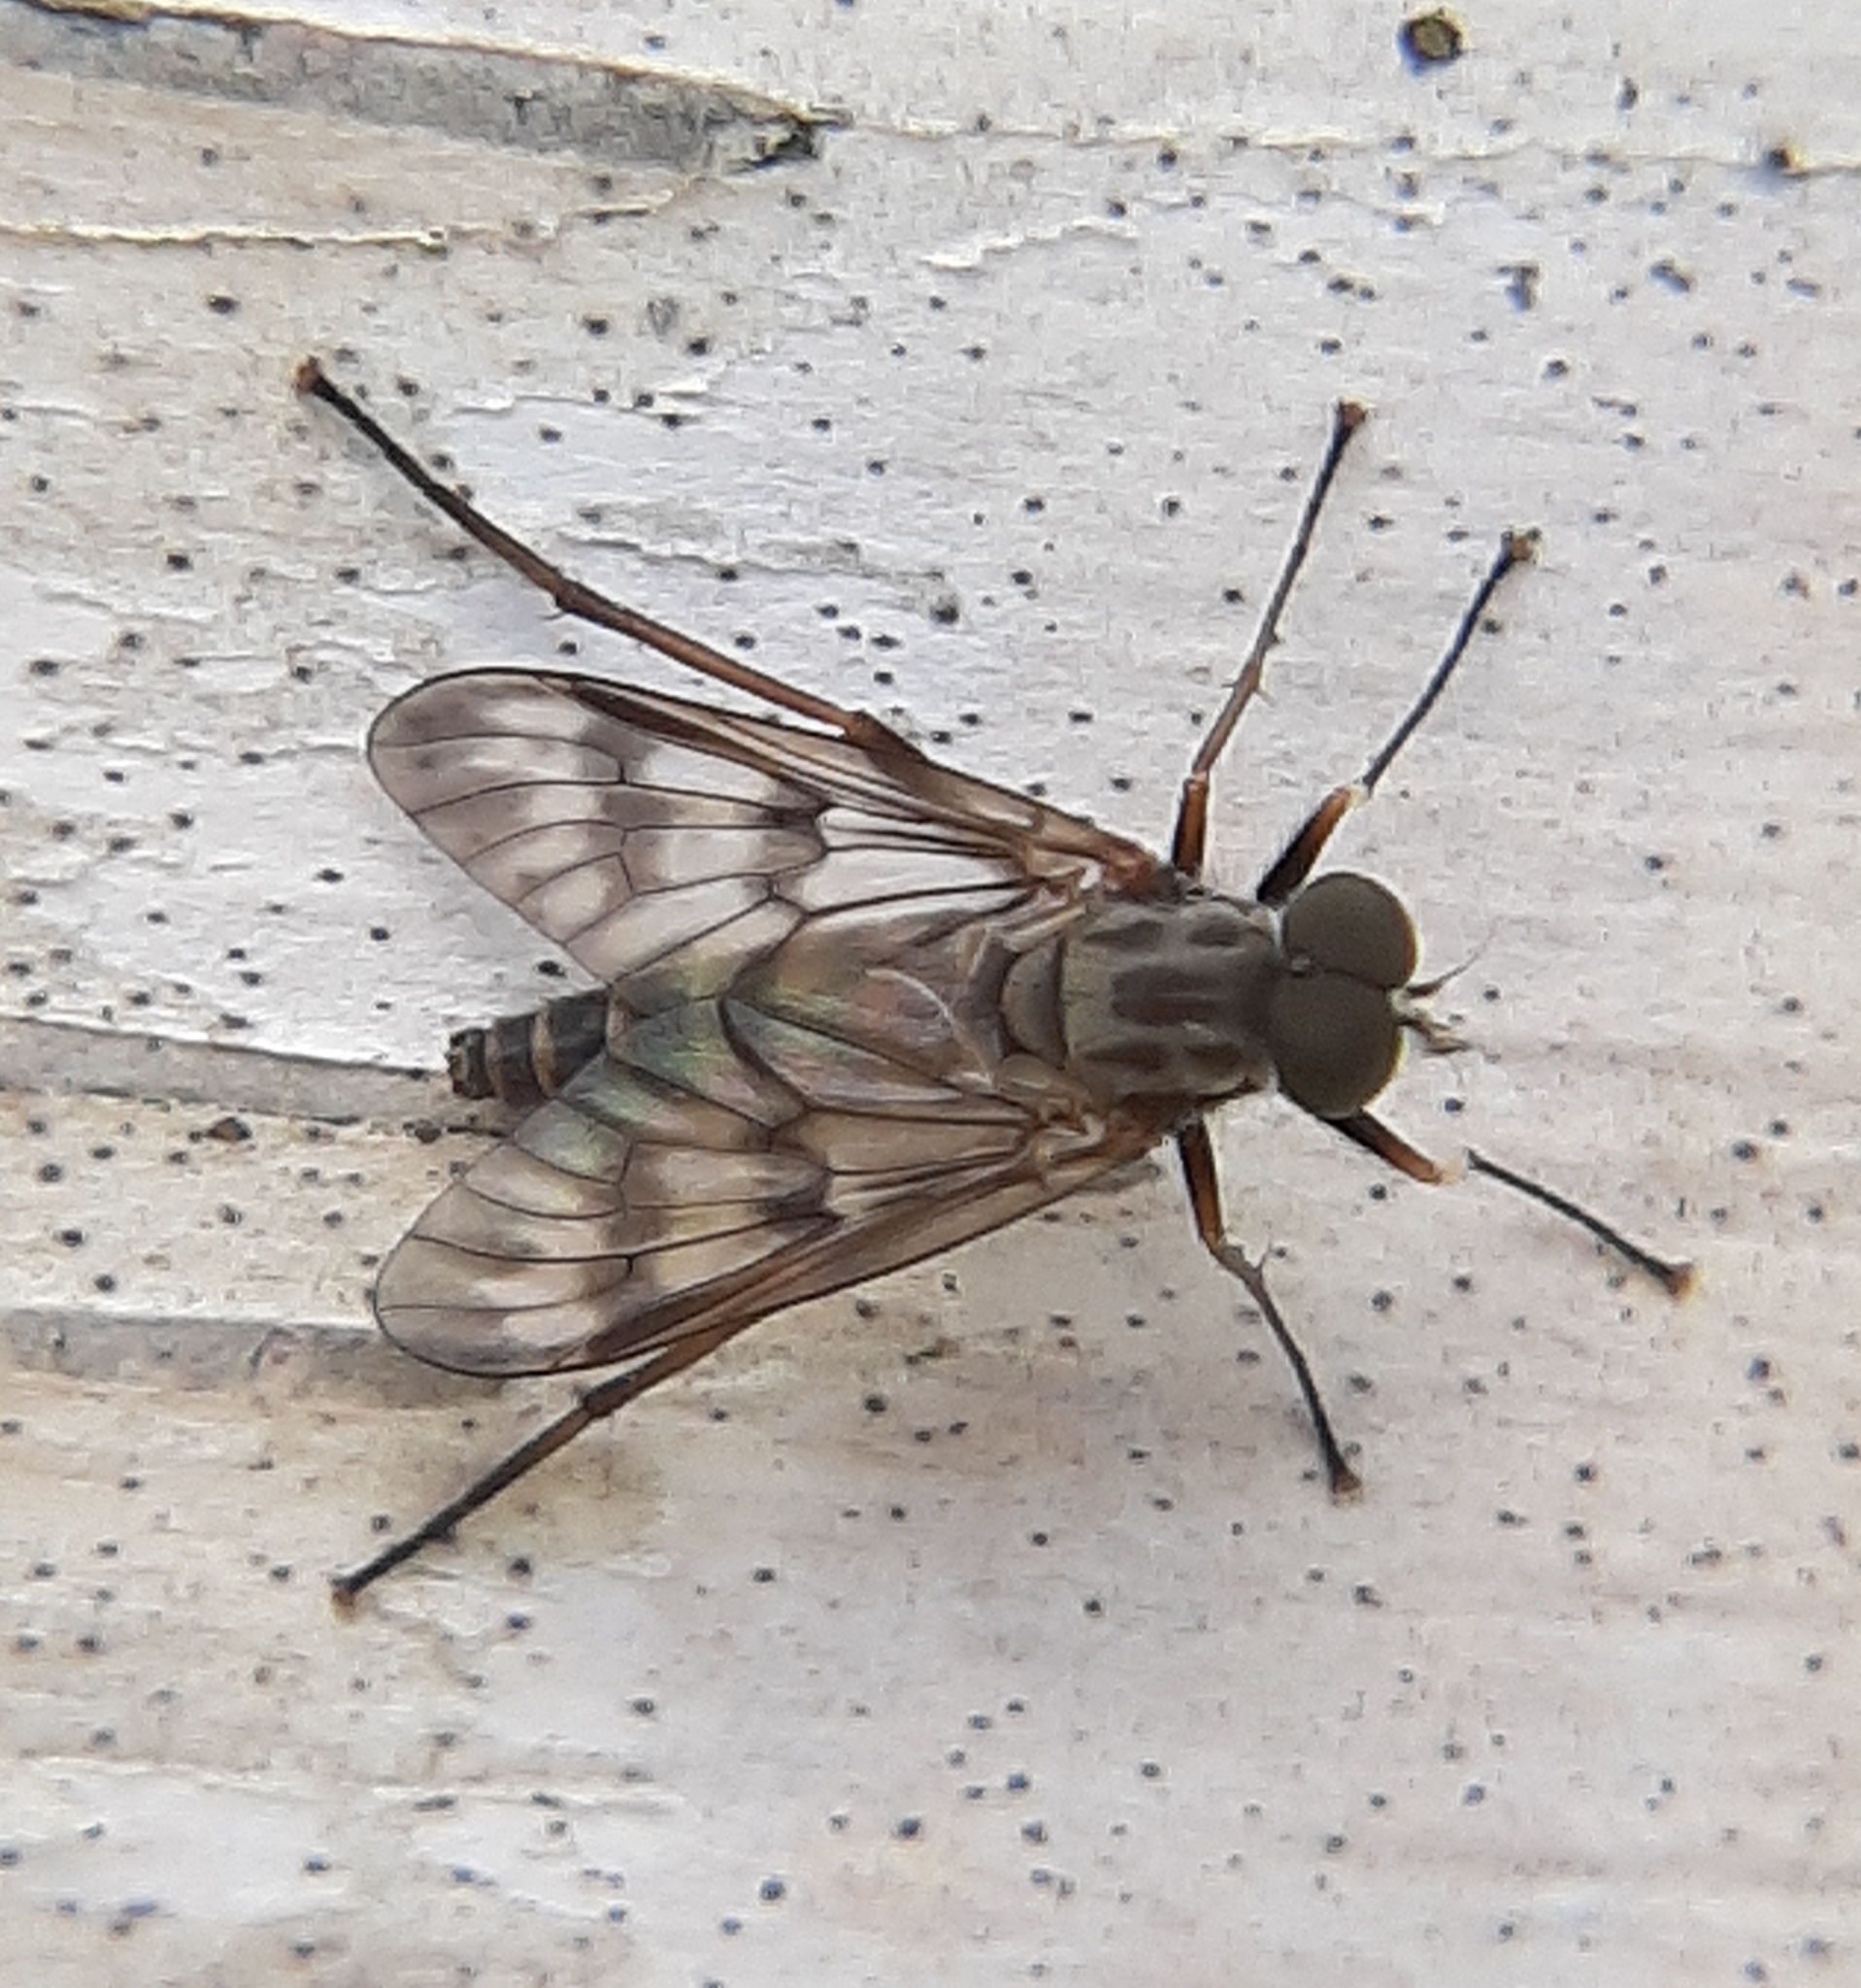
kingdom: Animalia
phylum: Arthropoda
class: Insecta
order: Diptera
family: Rhagionidae
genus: Rhagio
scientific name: Rhagio mystaceus
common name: Common snipe fly
